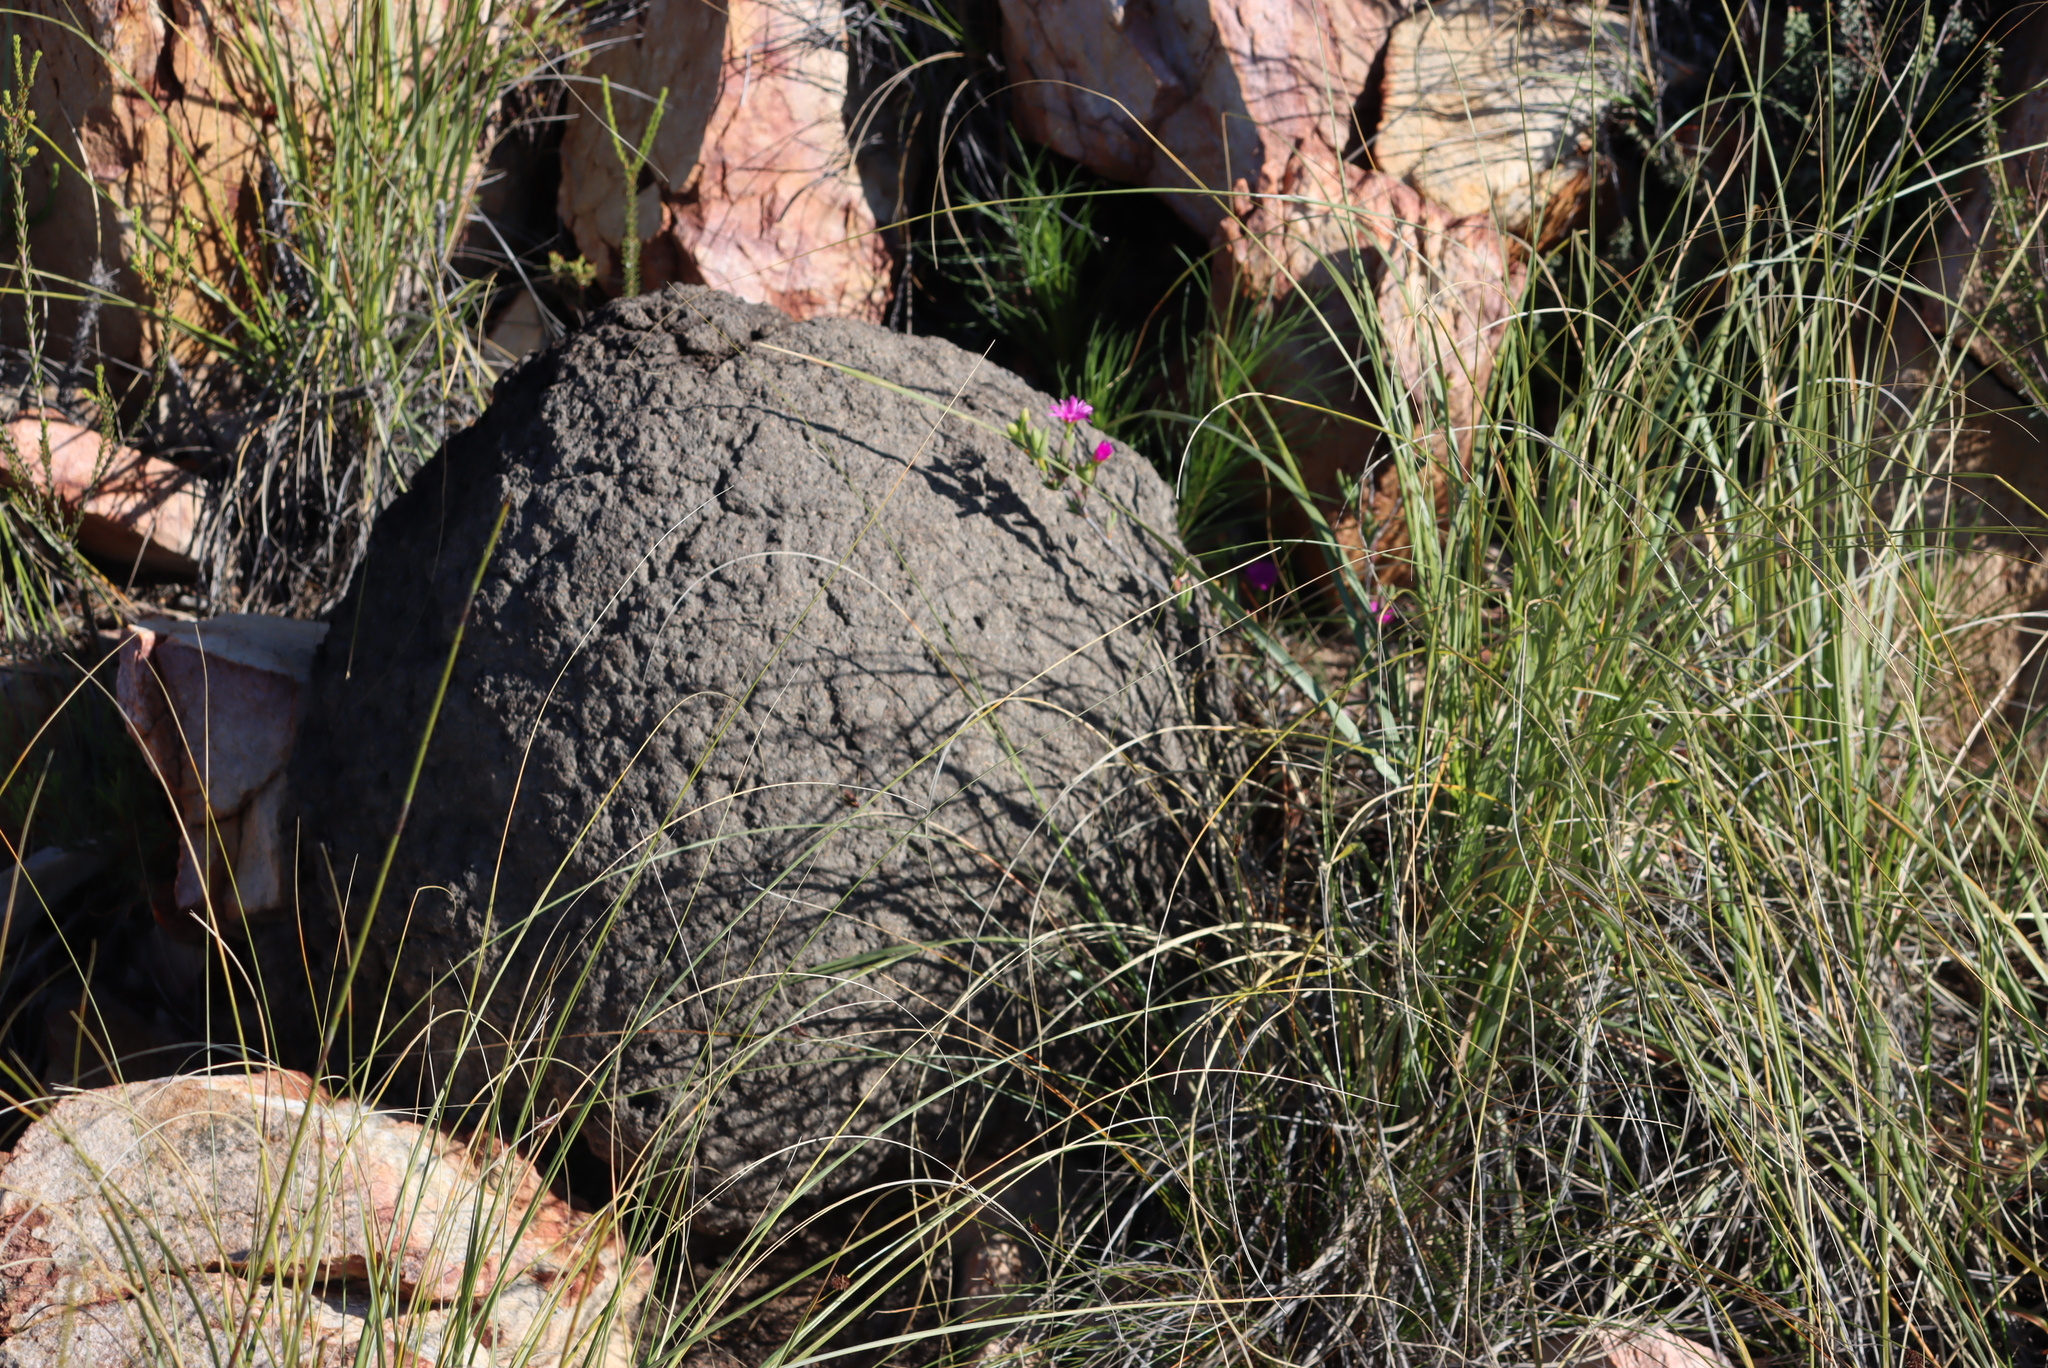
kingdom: Animalia
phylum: Arthropoda
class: Insecta
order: Blattodea
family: Termitidae
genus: Amitermes
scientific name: Amitermes hastatus
